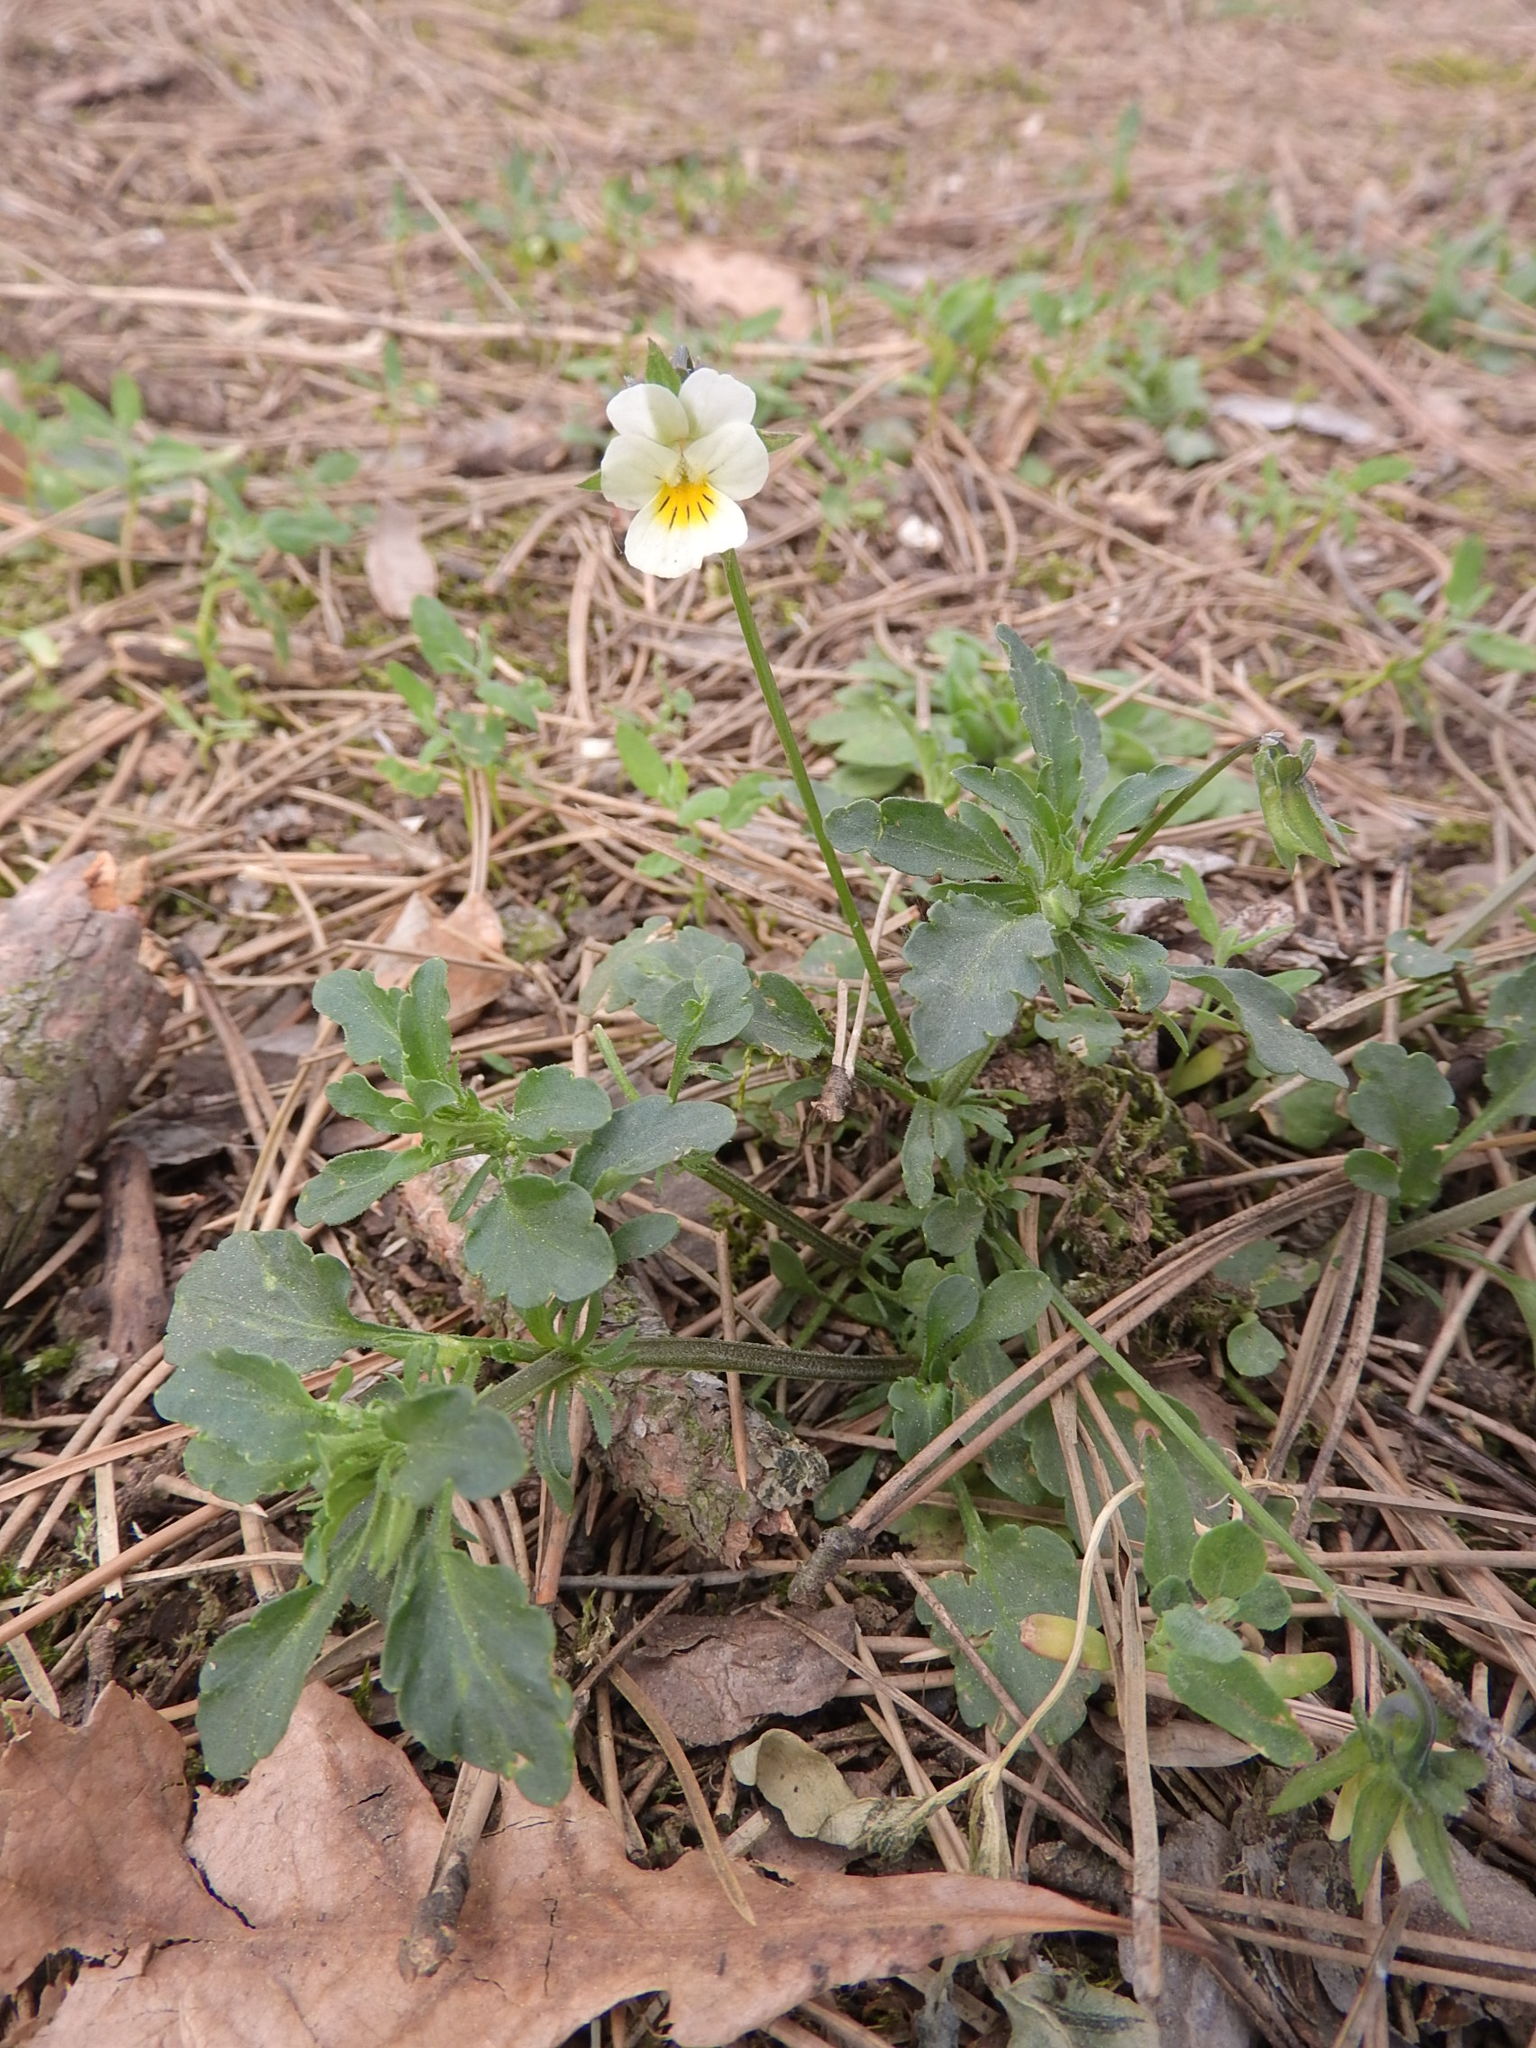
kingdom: Plantae
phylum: Tracheophyta
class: Magnoliopsida
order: Malpighiales
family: Violaceae
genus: Viola
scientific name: Viola arvensis
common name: Field pansy
